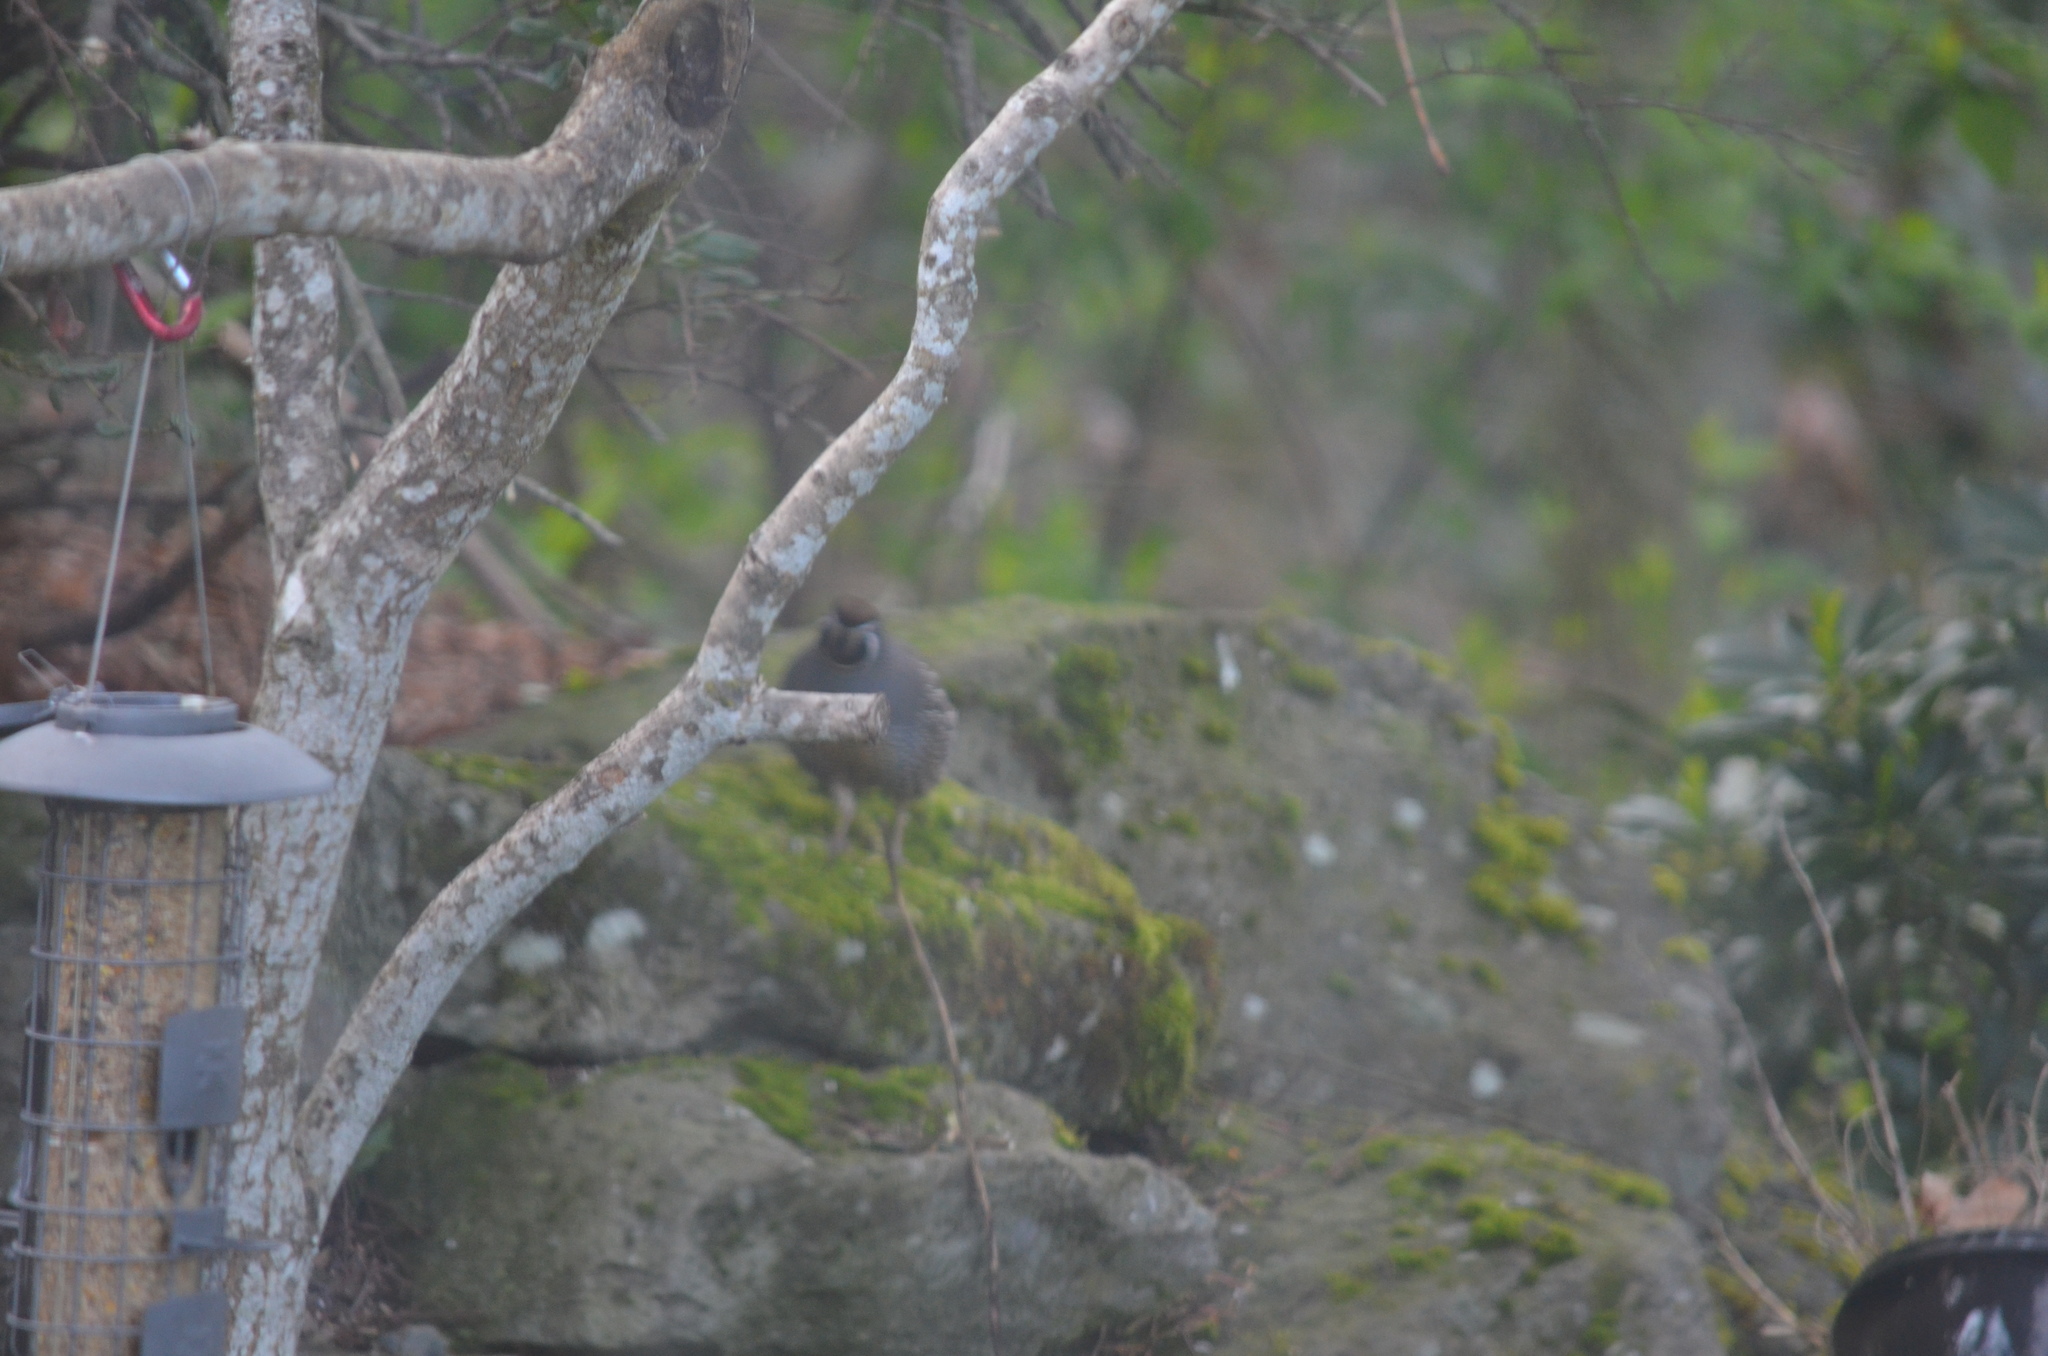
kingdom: Animalia
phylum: Chordata
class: Aves
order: Galliformes
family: Odontophoridae
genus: Callipepla
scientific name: Callipepla californica
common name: California quail
